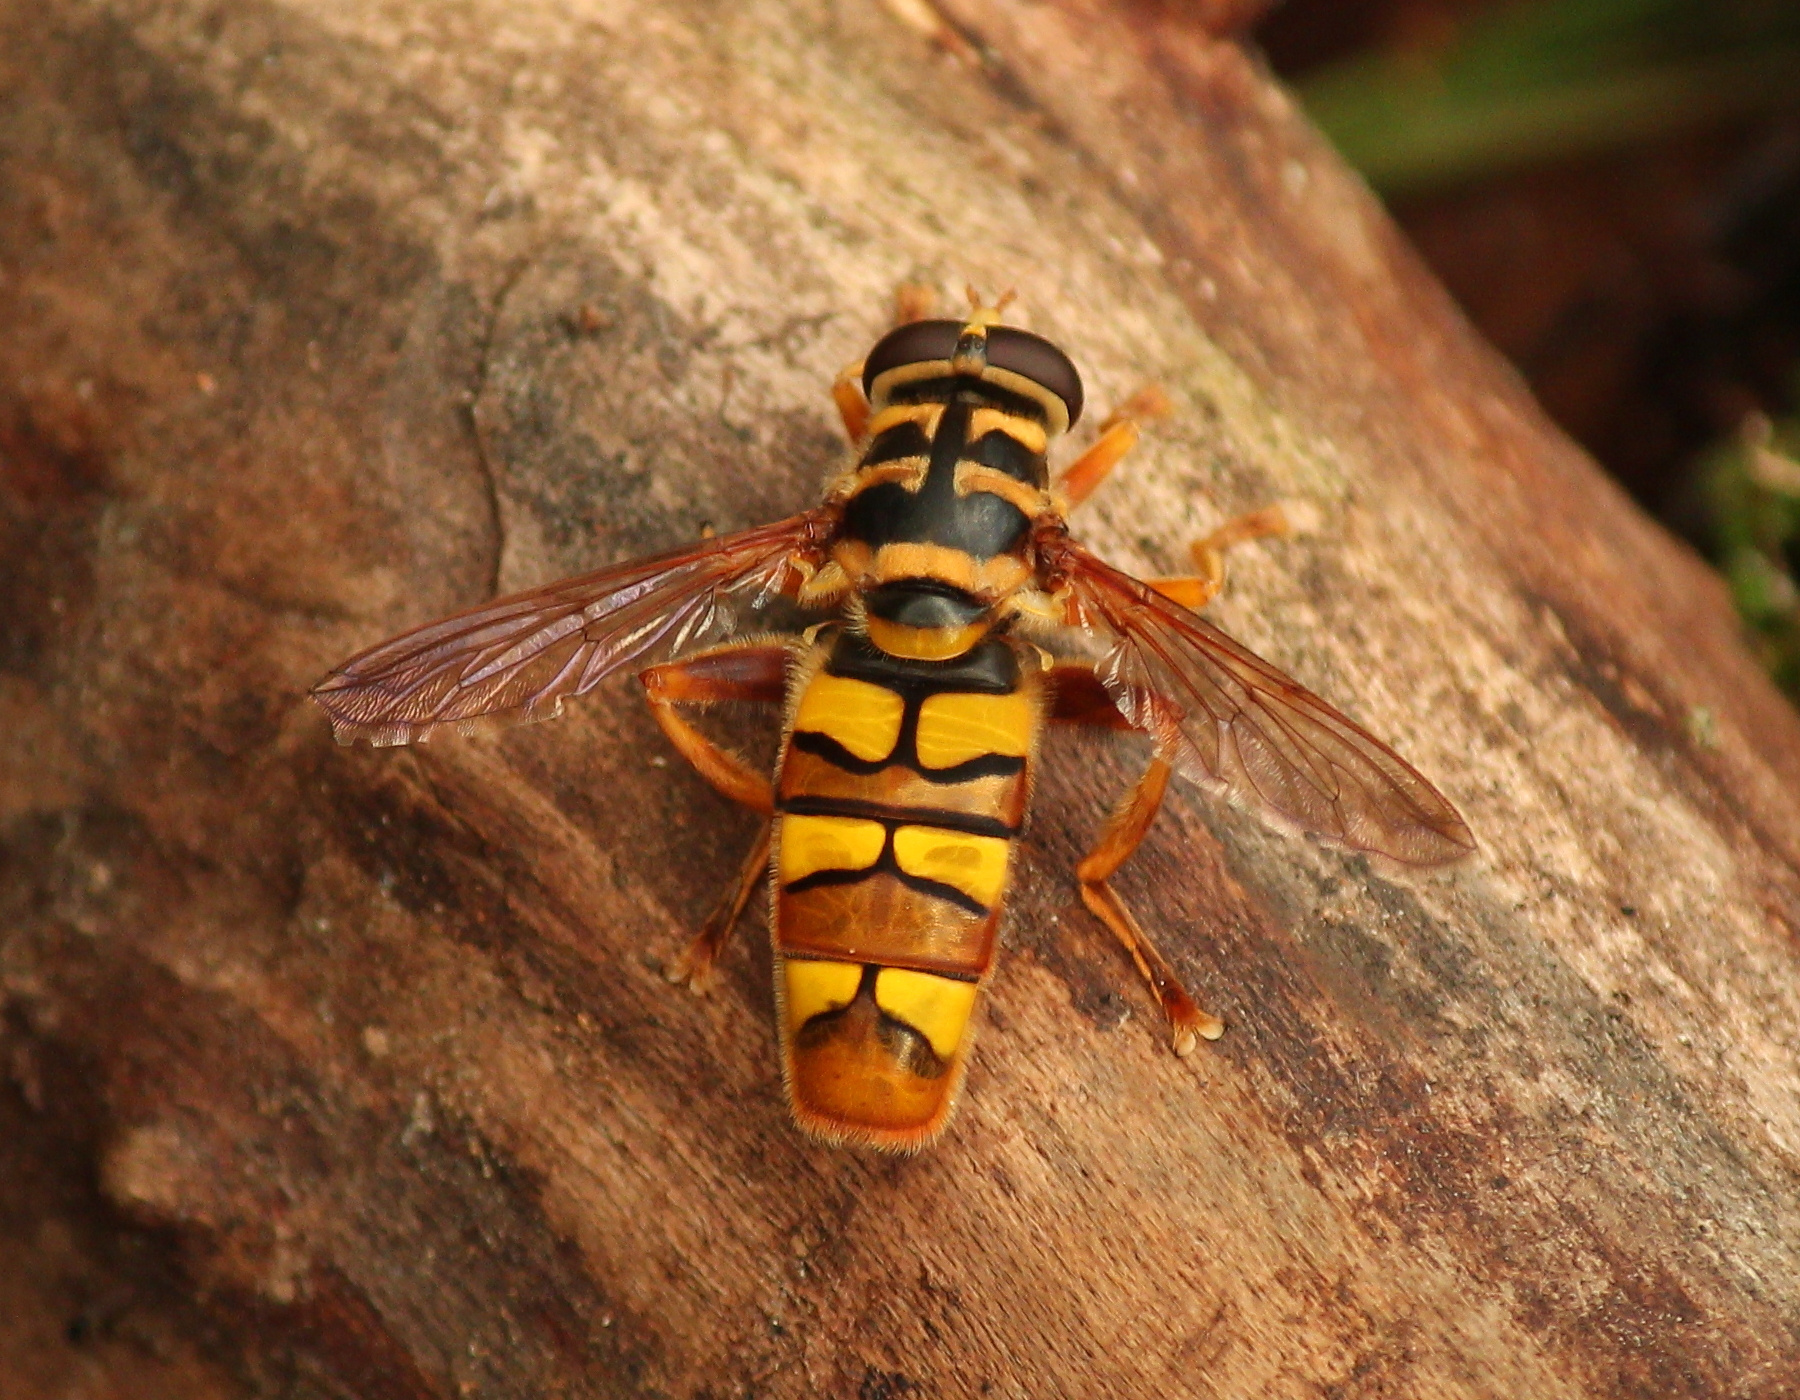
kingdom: Animalia
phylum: Arthropoda
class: Insecta
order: Diptera
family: Syrphidae
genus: Milesia
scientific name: Milesia virginiensis
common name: Virginia giant
